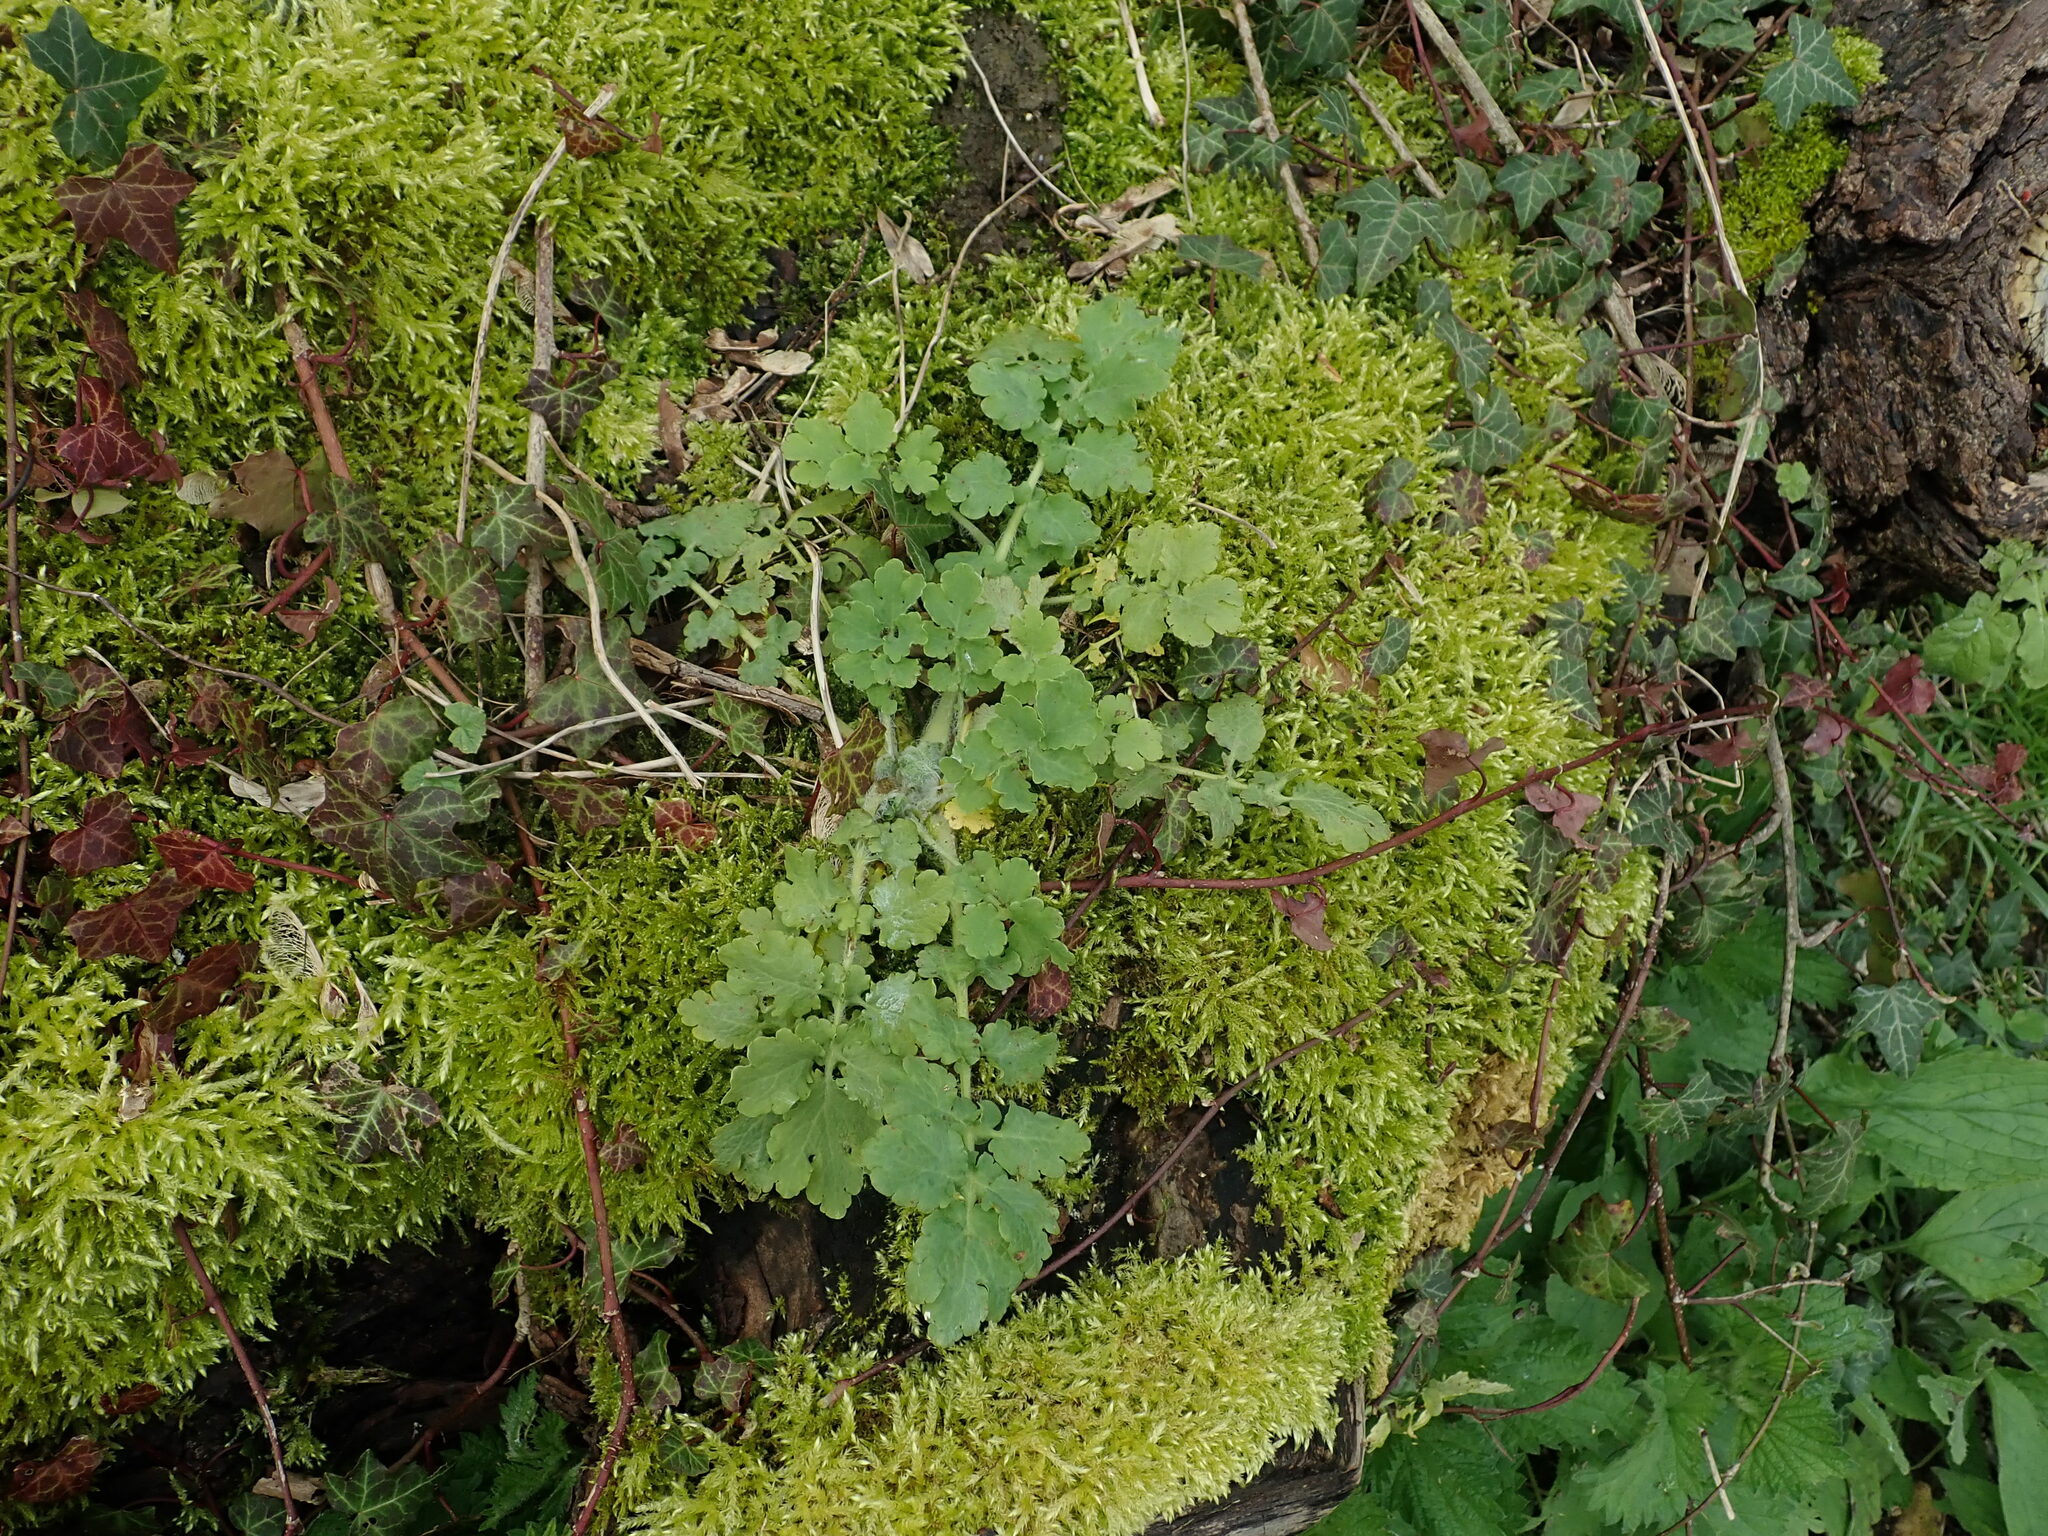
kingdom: Plantae
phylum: Tracheophyta
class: Magnoliopsida
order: Ranunculales
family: Papaveraceae
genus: Chelidonium
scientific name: Chelidonium majus
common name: Greater celandine
